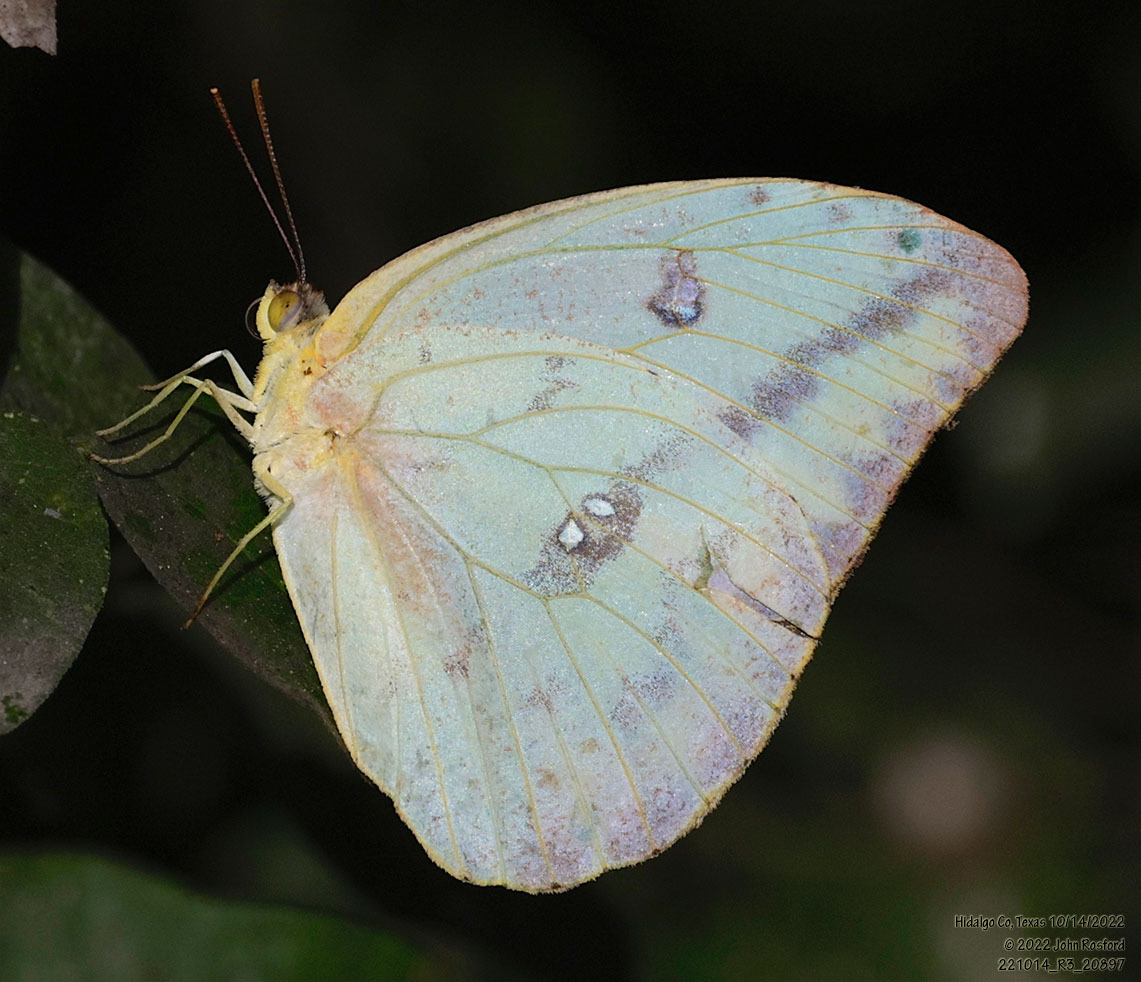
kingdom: Animalia
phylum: Arthropoda
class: Insecta
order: Lepidoptera
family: Pieridae
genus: Phoebis
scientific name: Phoebis agarithe
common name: Large orange sulphur
